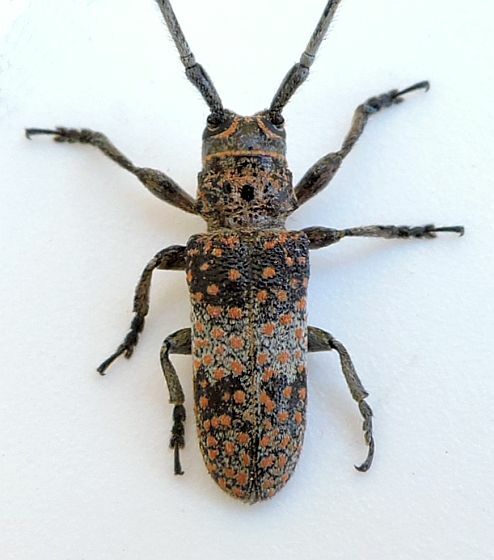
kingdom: Animalia
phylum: Arthropoda
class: Insecta
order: Coleoptera
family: Cerambycidae
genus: Oncideres
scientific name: Oncideres rhodosticta
